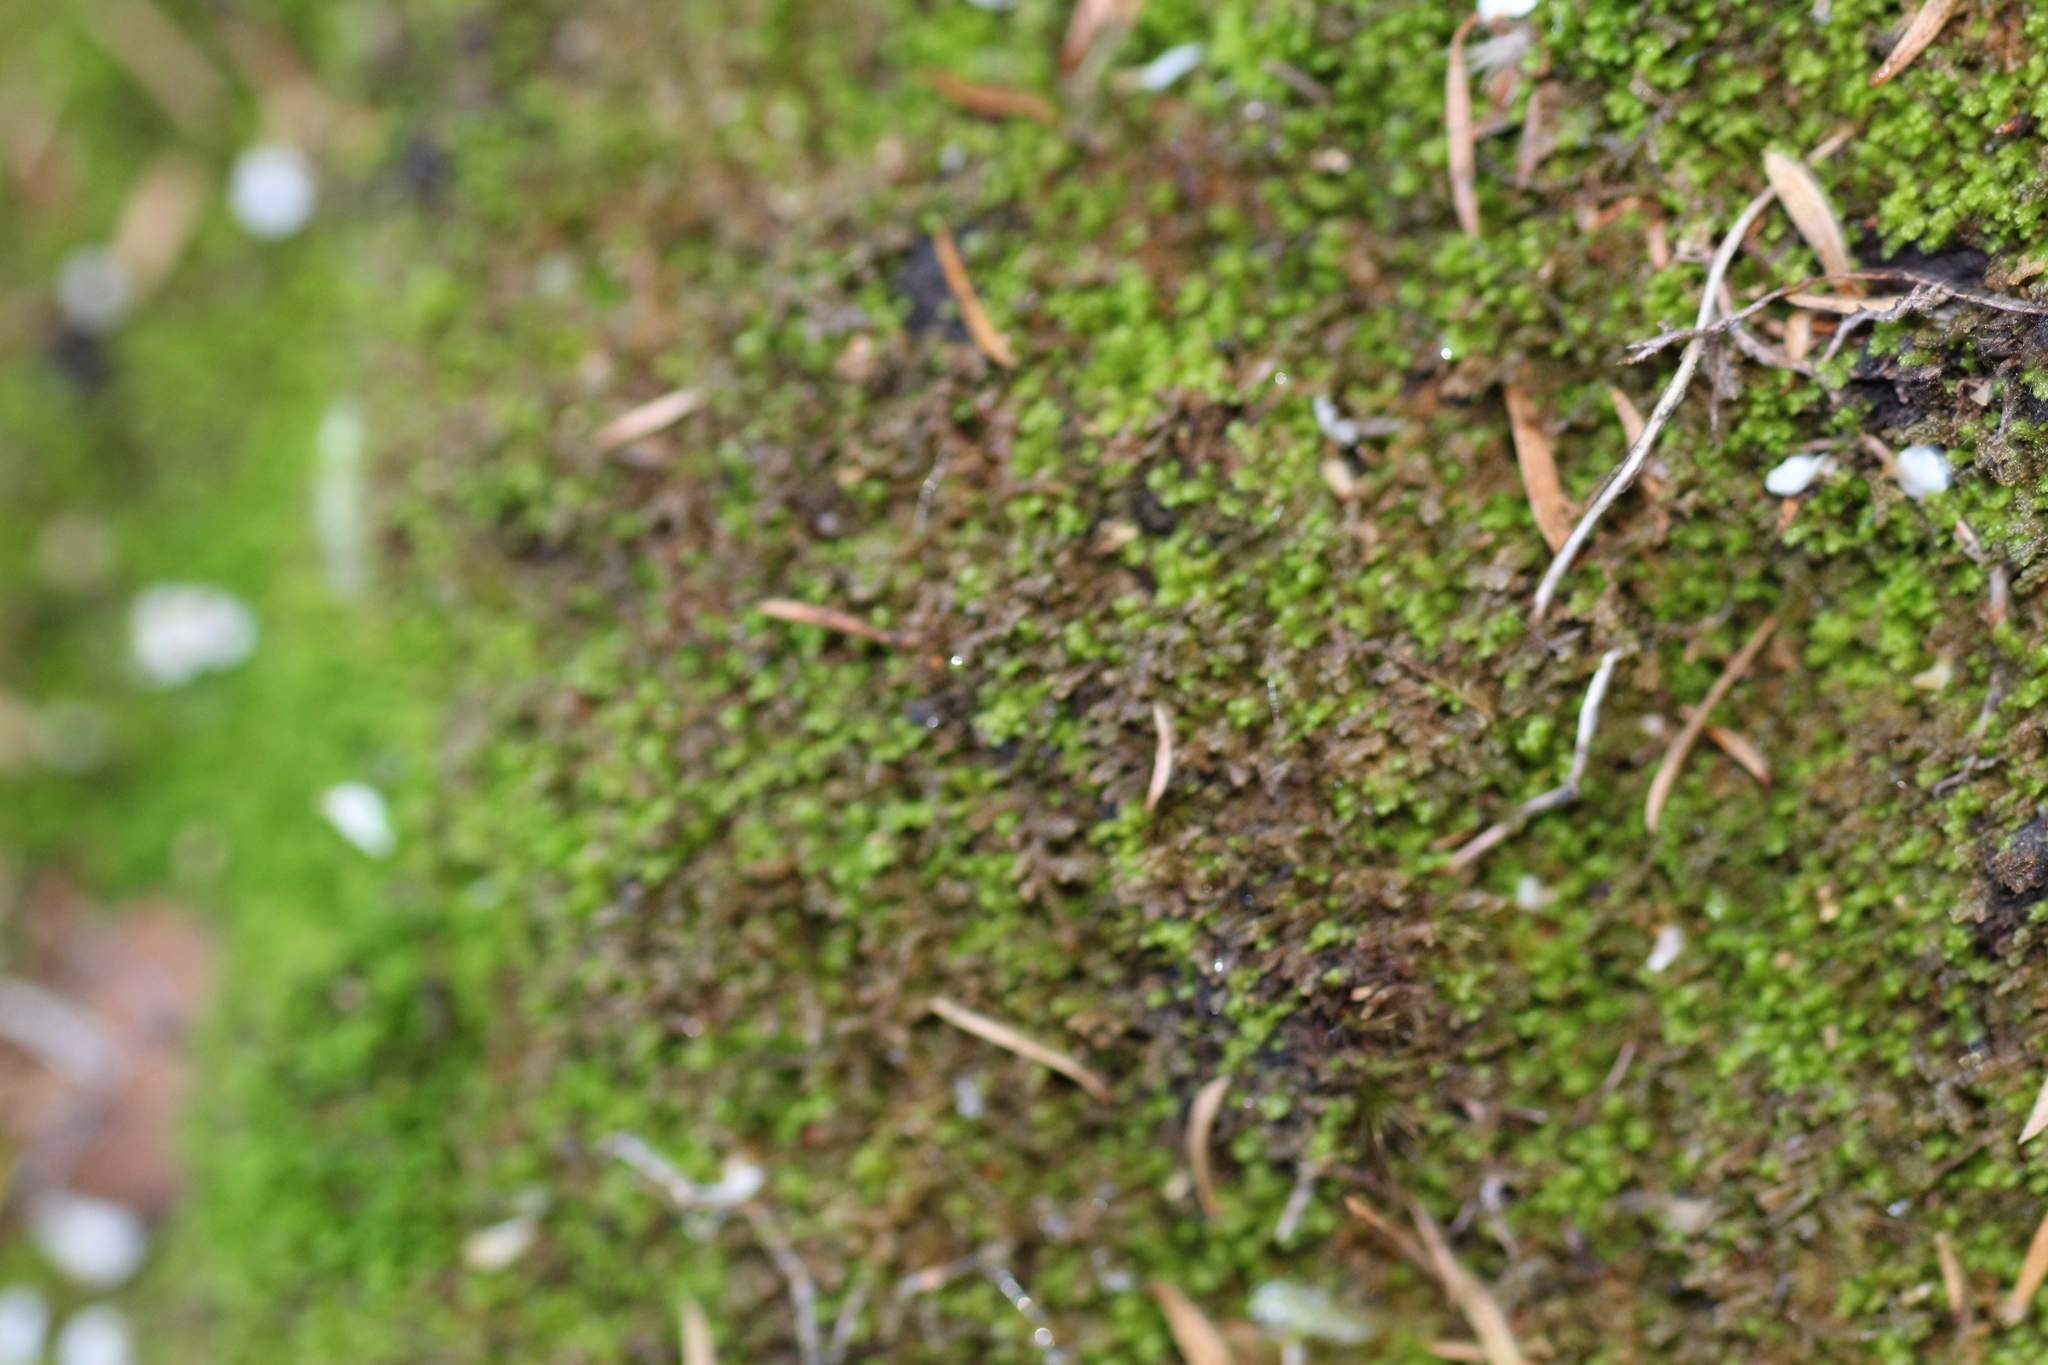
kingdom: Plantae
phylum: Marchantiophyta
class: Jungermanniopsida
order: Jungermanniales
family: Lepidoziaceae
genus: Kurzia
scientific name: Kurzia compacta
